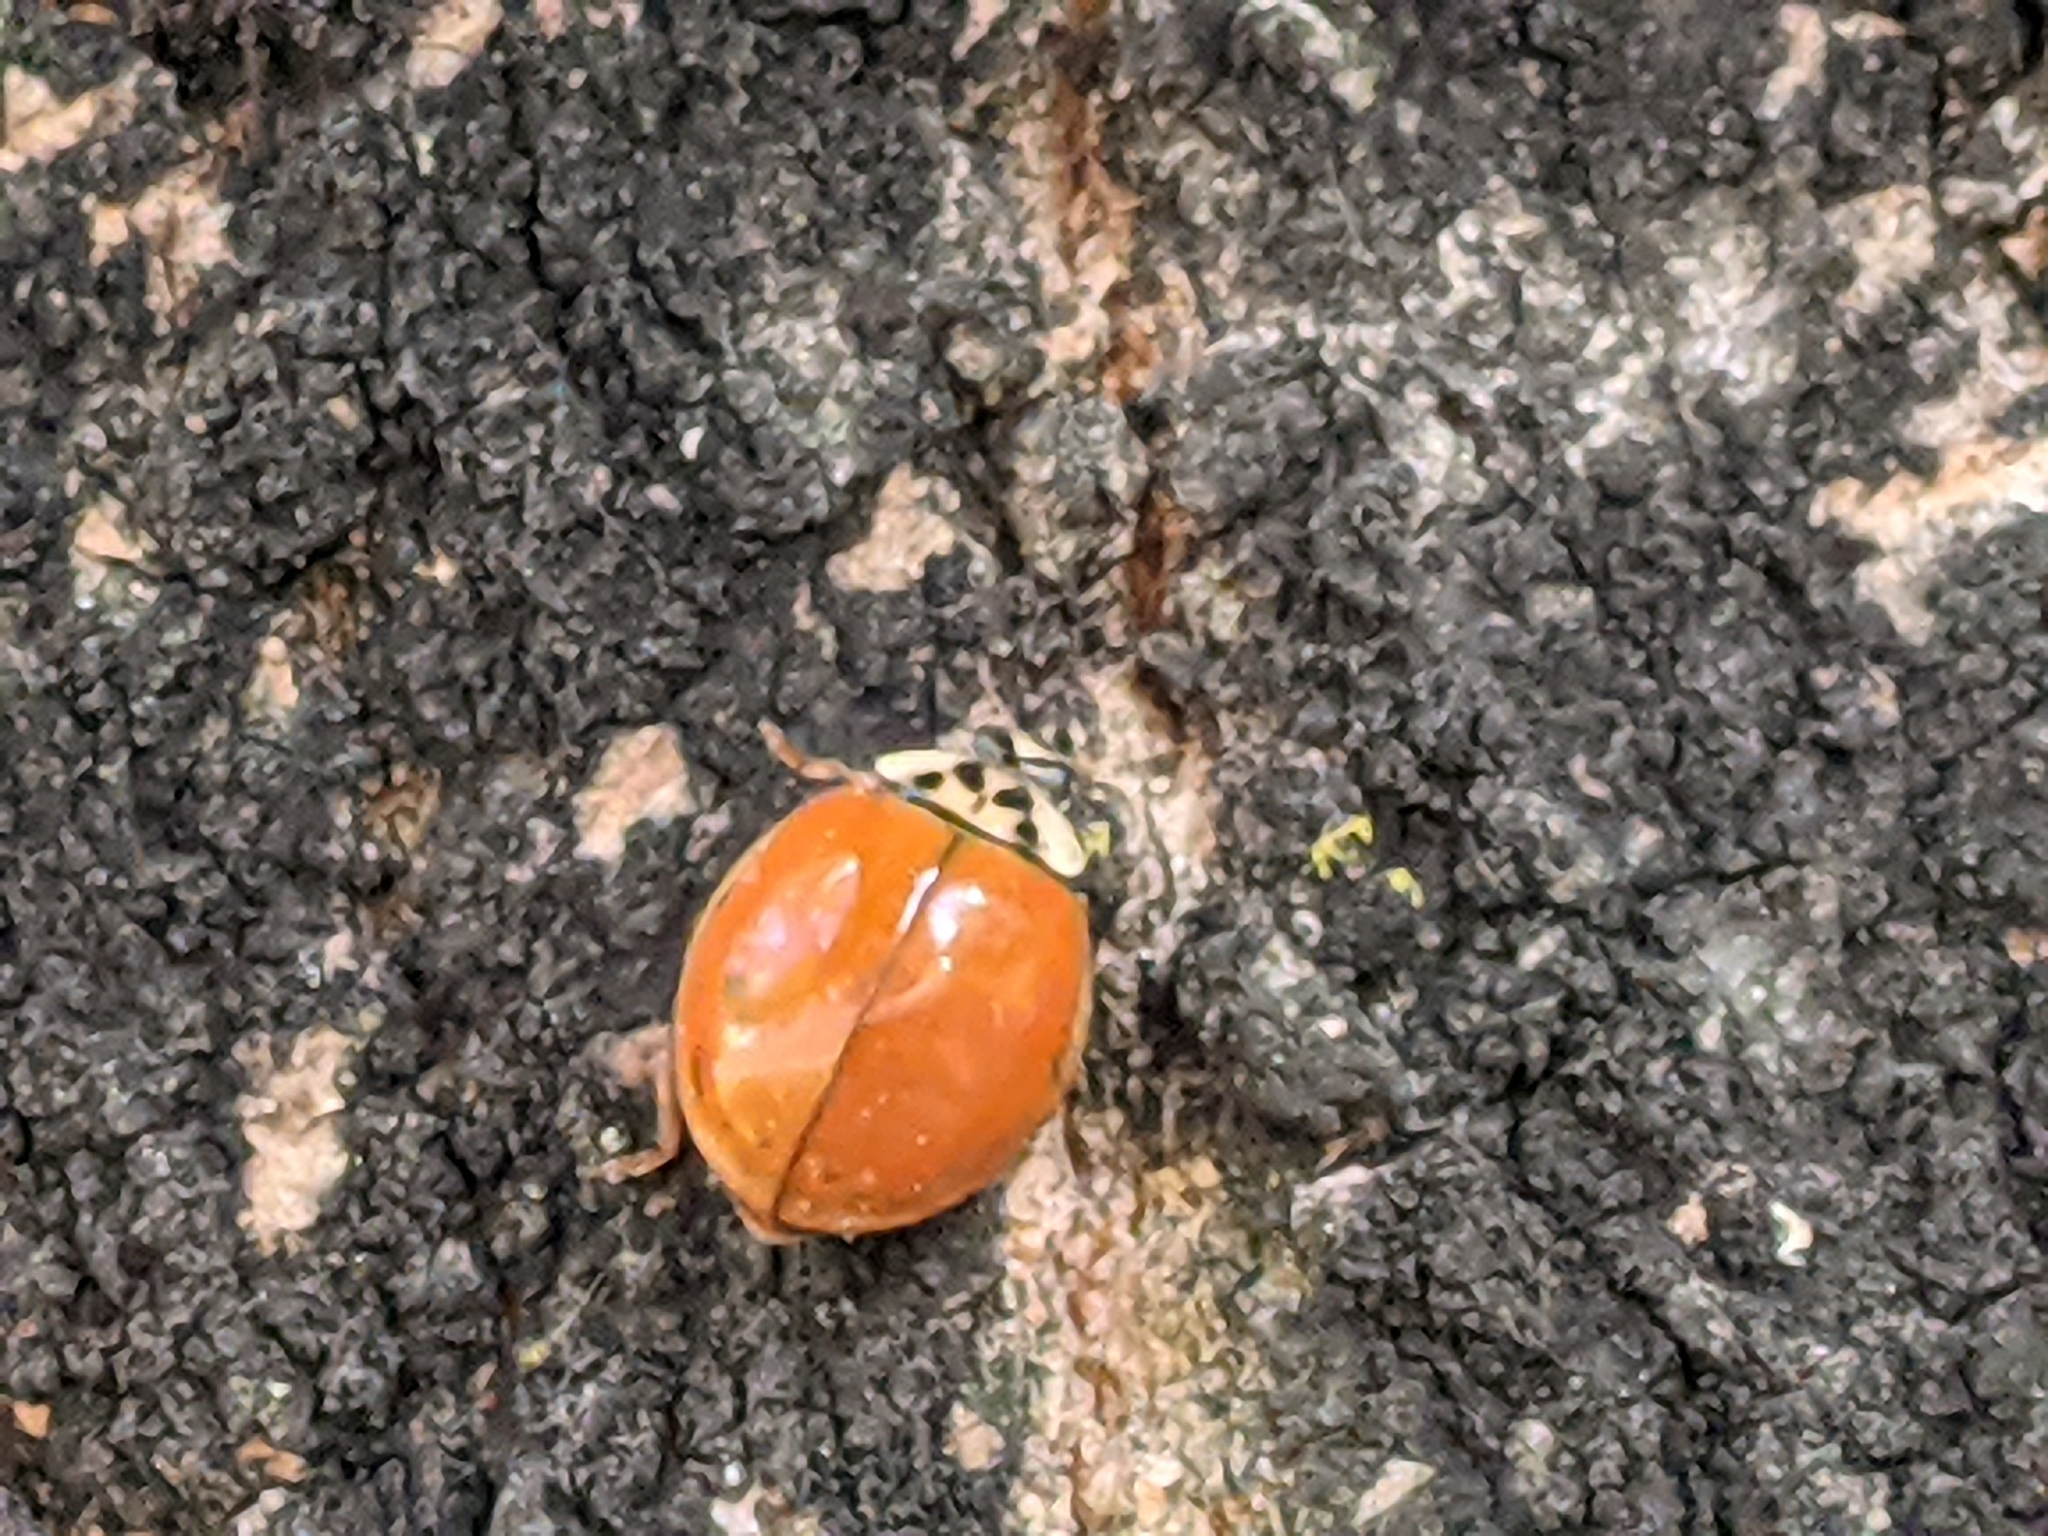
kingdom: Animalia
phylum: Arthropoda
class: Insecta
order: Coleoptera
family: Coccinellidae
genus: Harmonia
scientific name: Harmonia axyridis
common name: Harlequin ladybird
